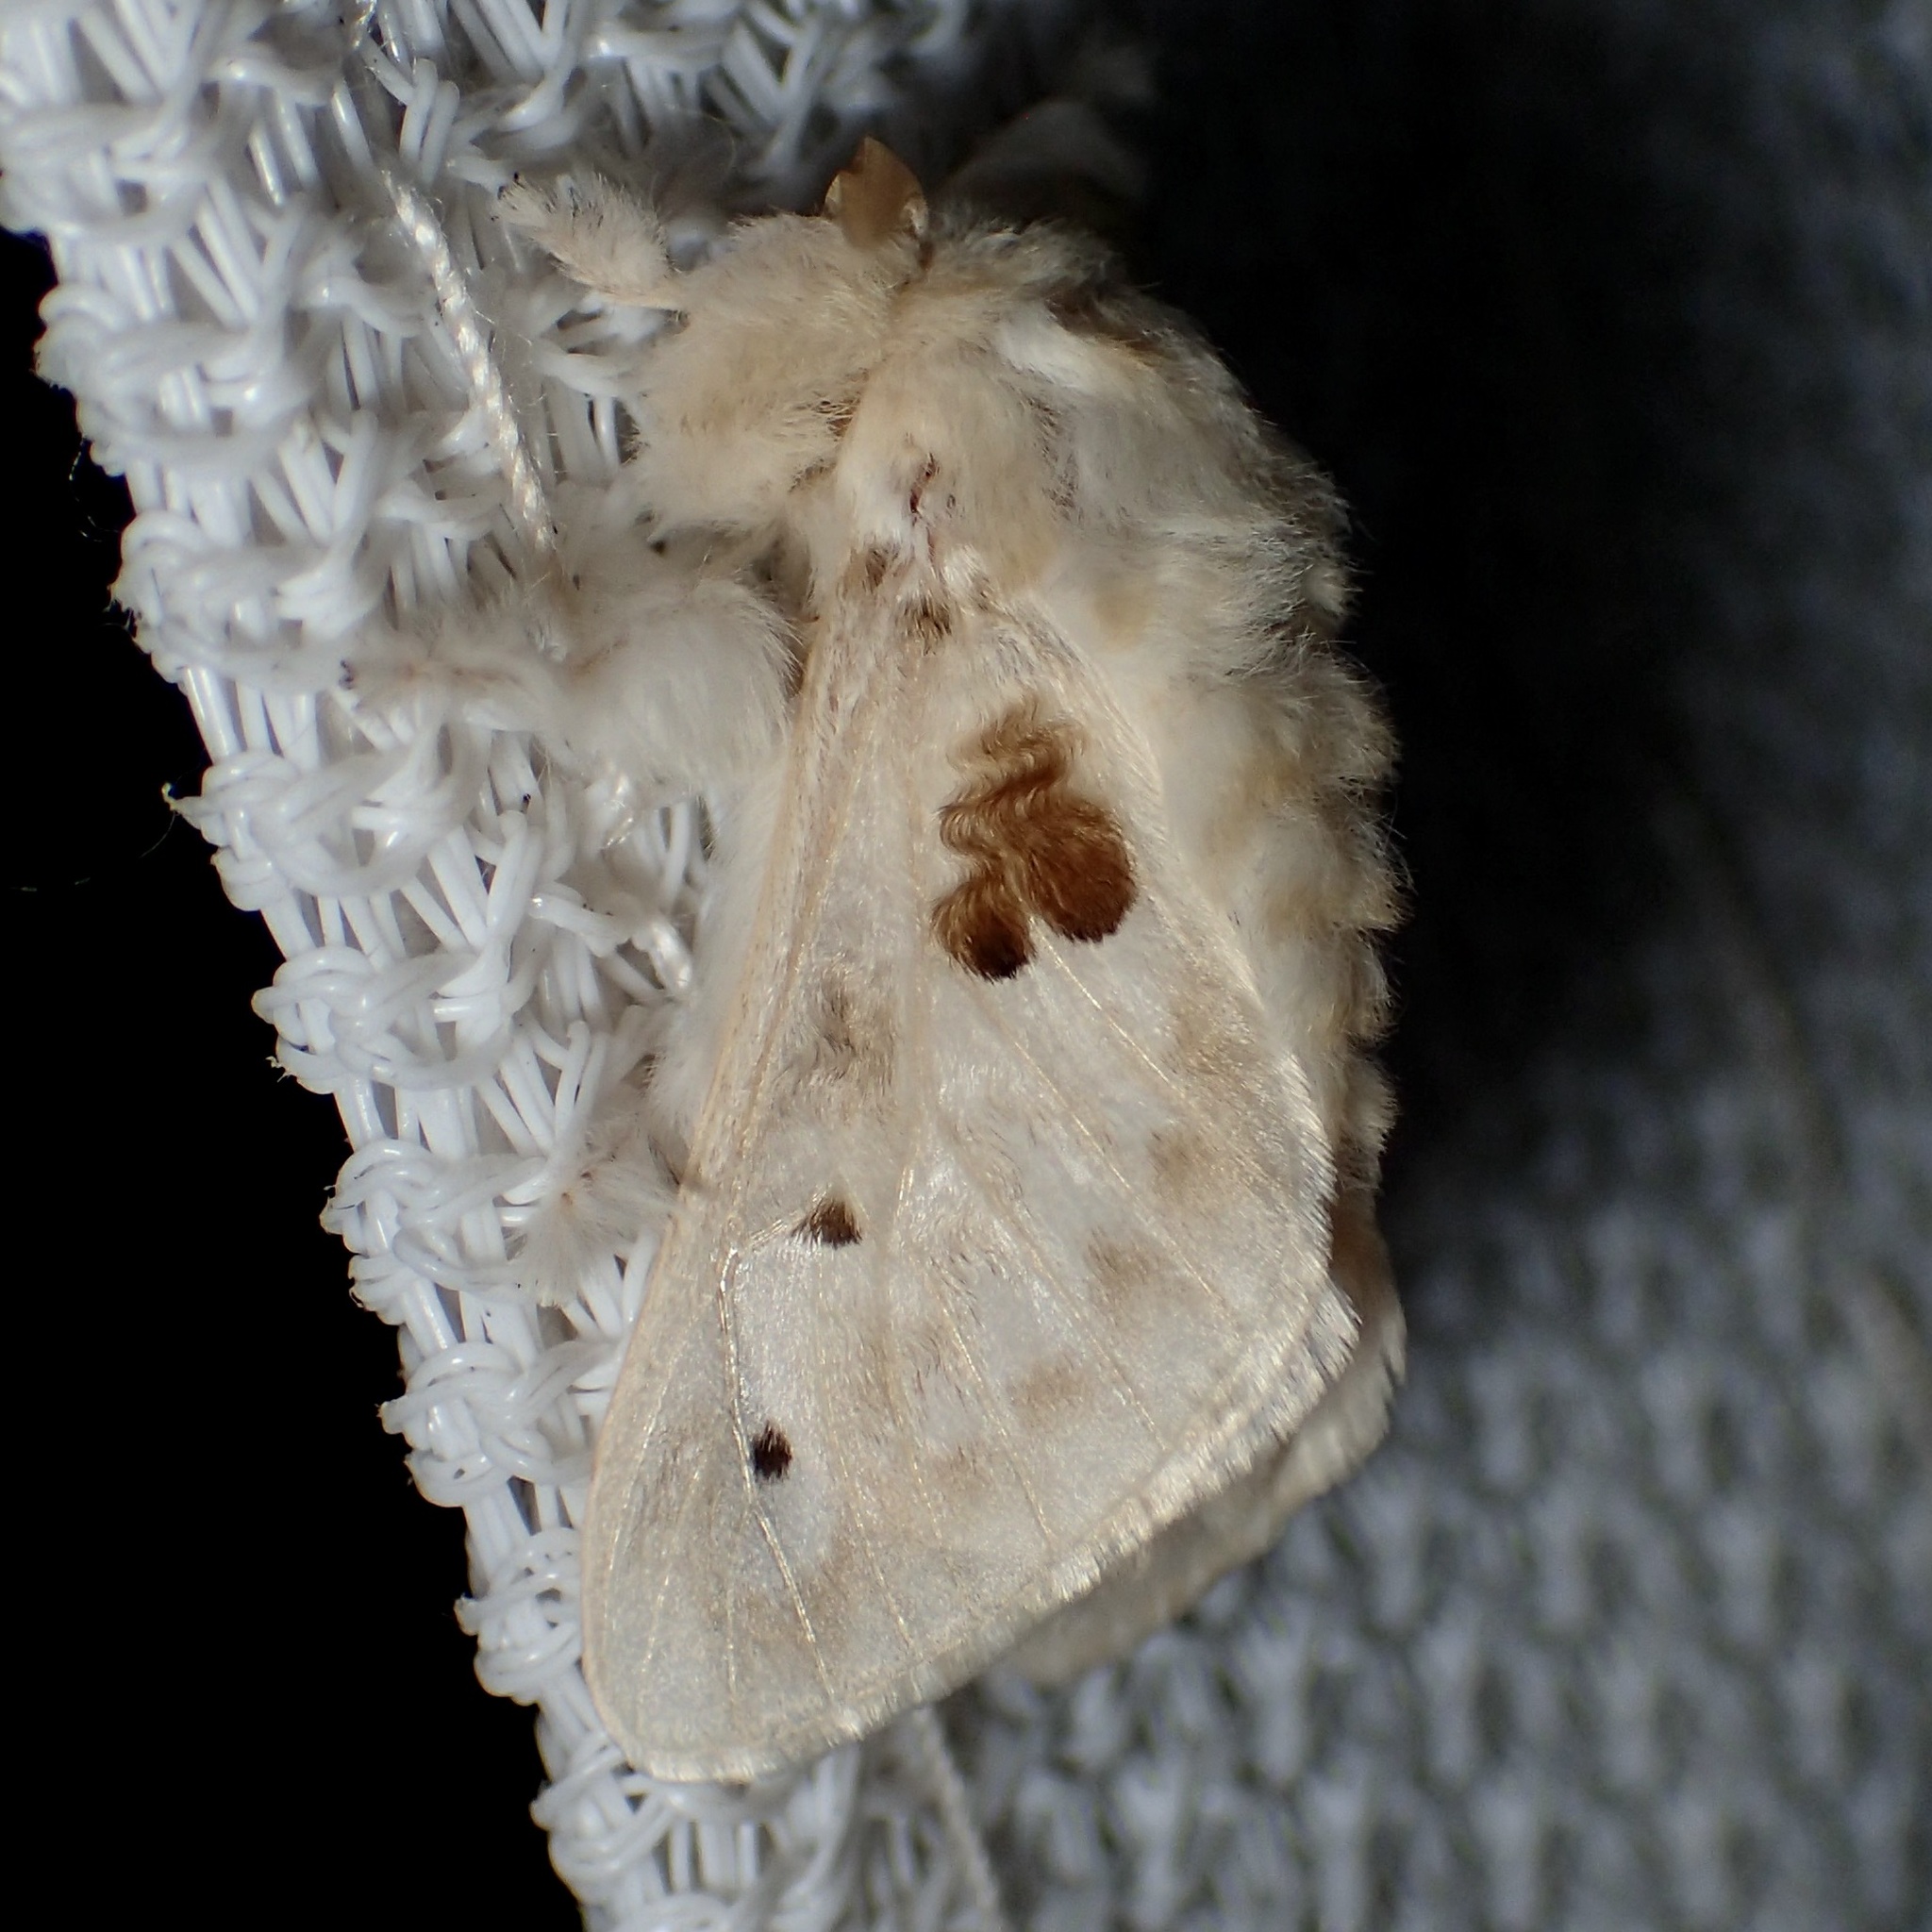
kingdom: Animalia
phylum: Arthropoda
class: Insecta
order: Lepidoptera
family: Megalopygidae
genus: Megalopyge
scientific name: Megalopyge lapena
